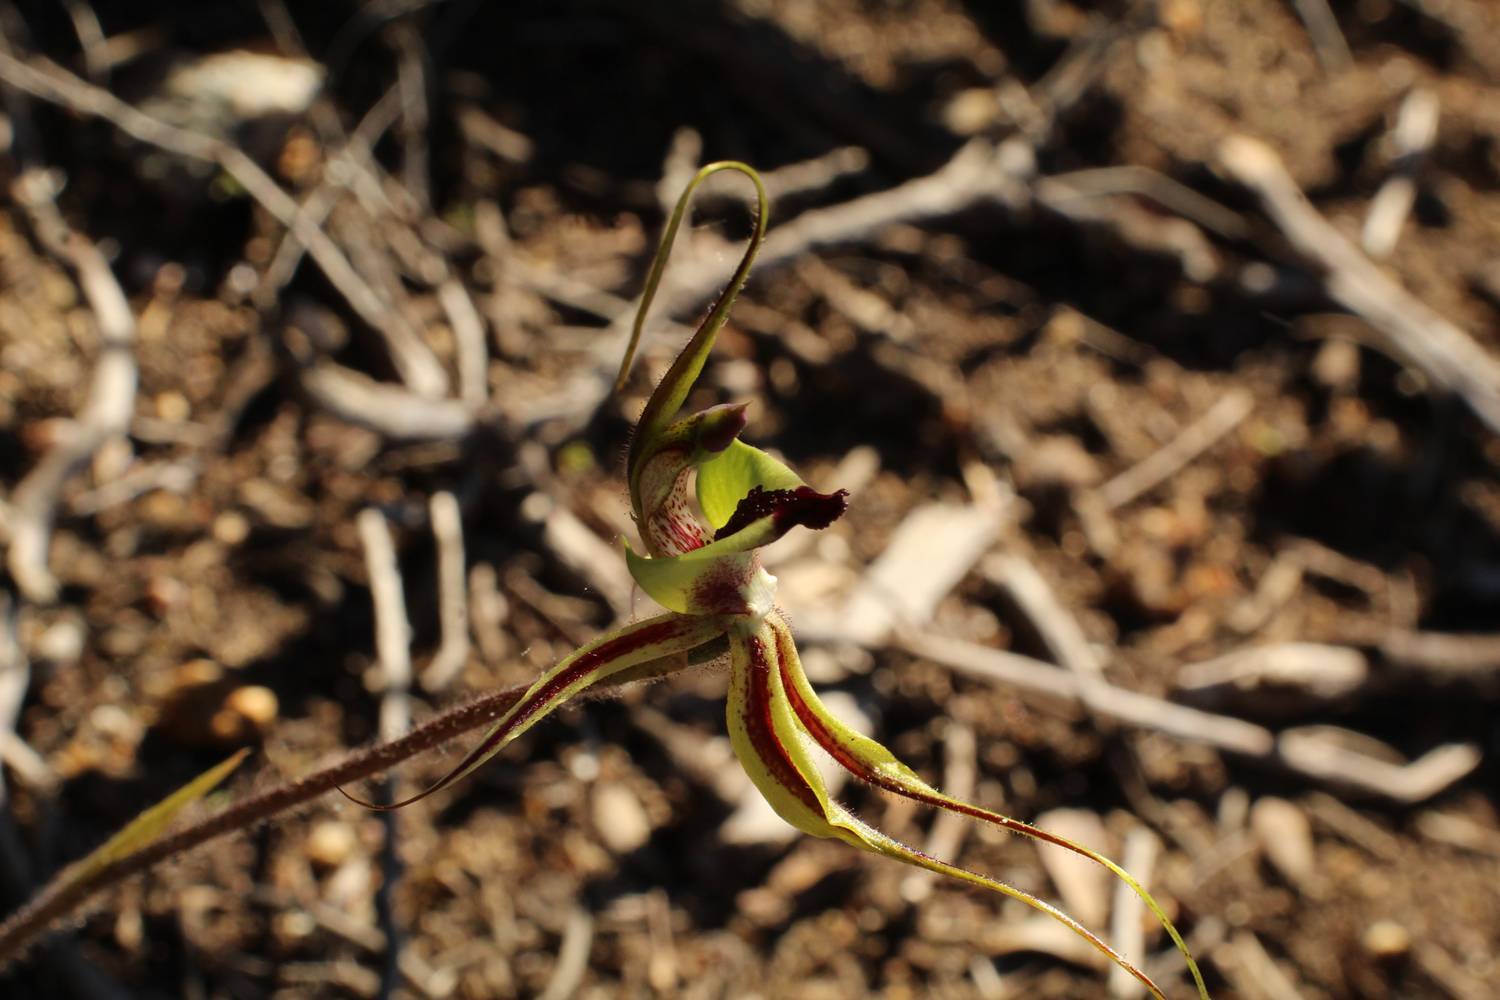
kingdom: Plantae
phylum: Tracheophyta
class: Liliopsida
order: Asparagales
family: Orchidaceae
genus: Caladenia
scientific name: Caladenia exstans
